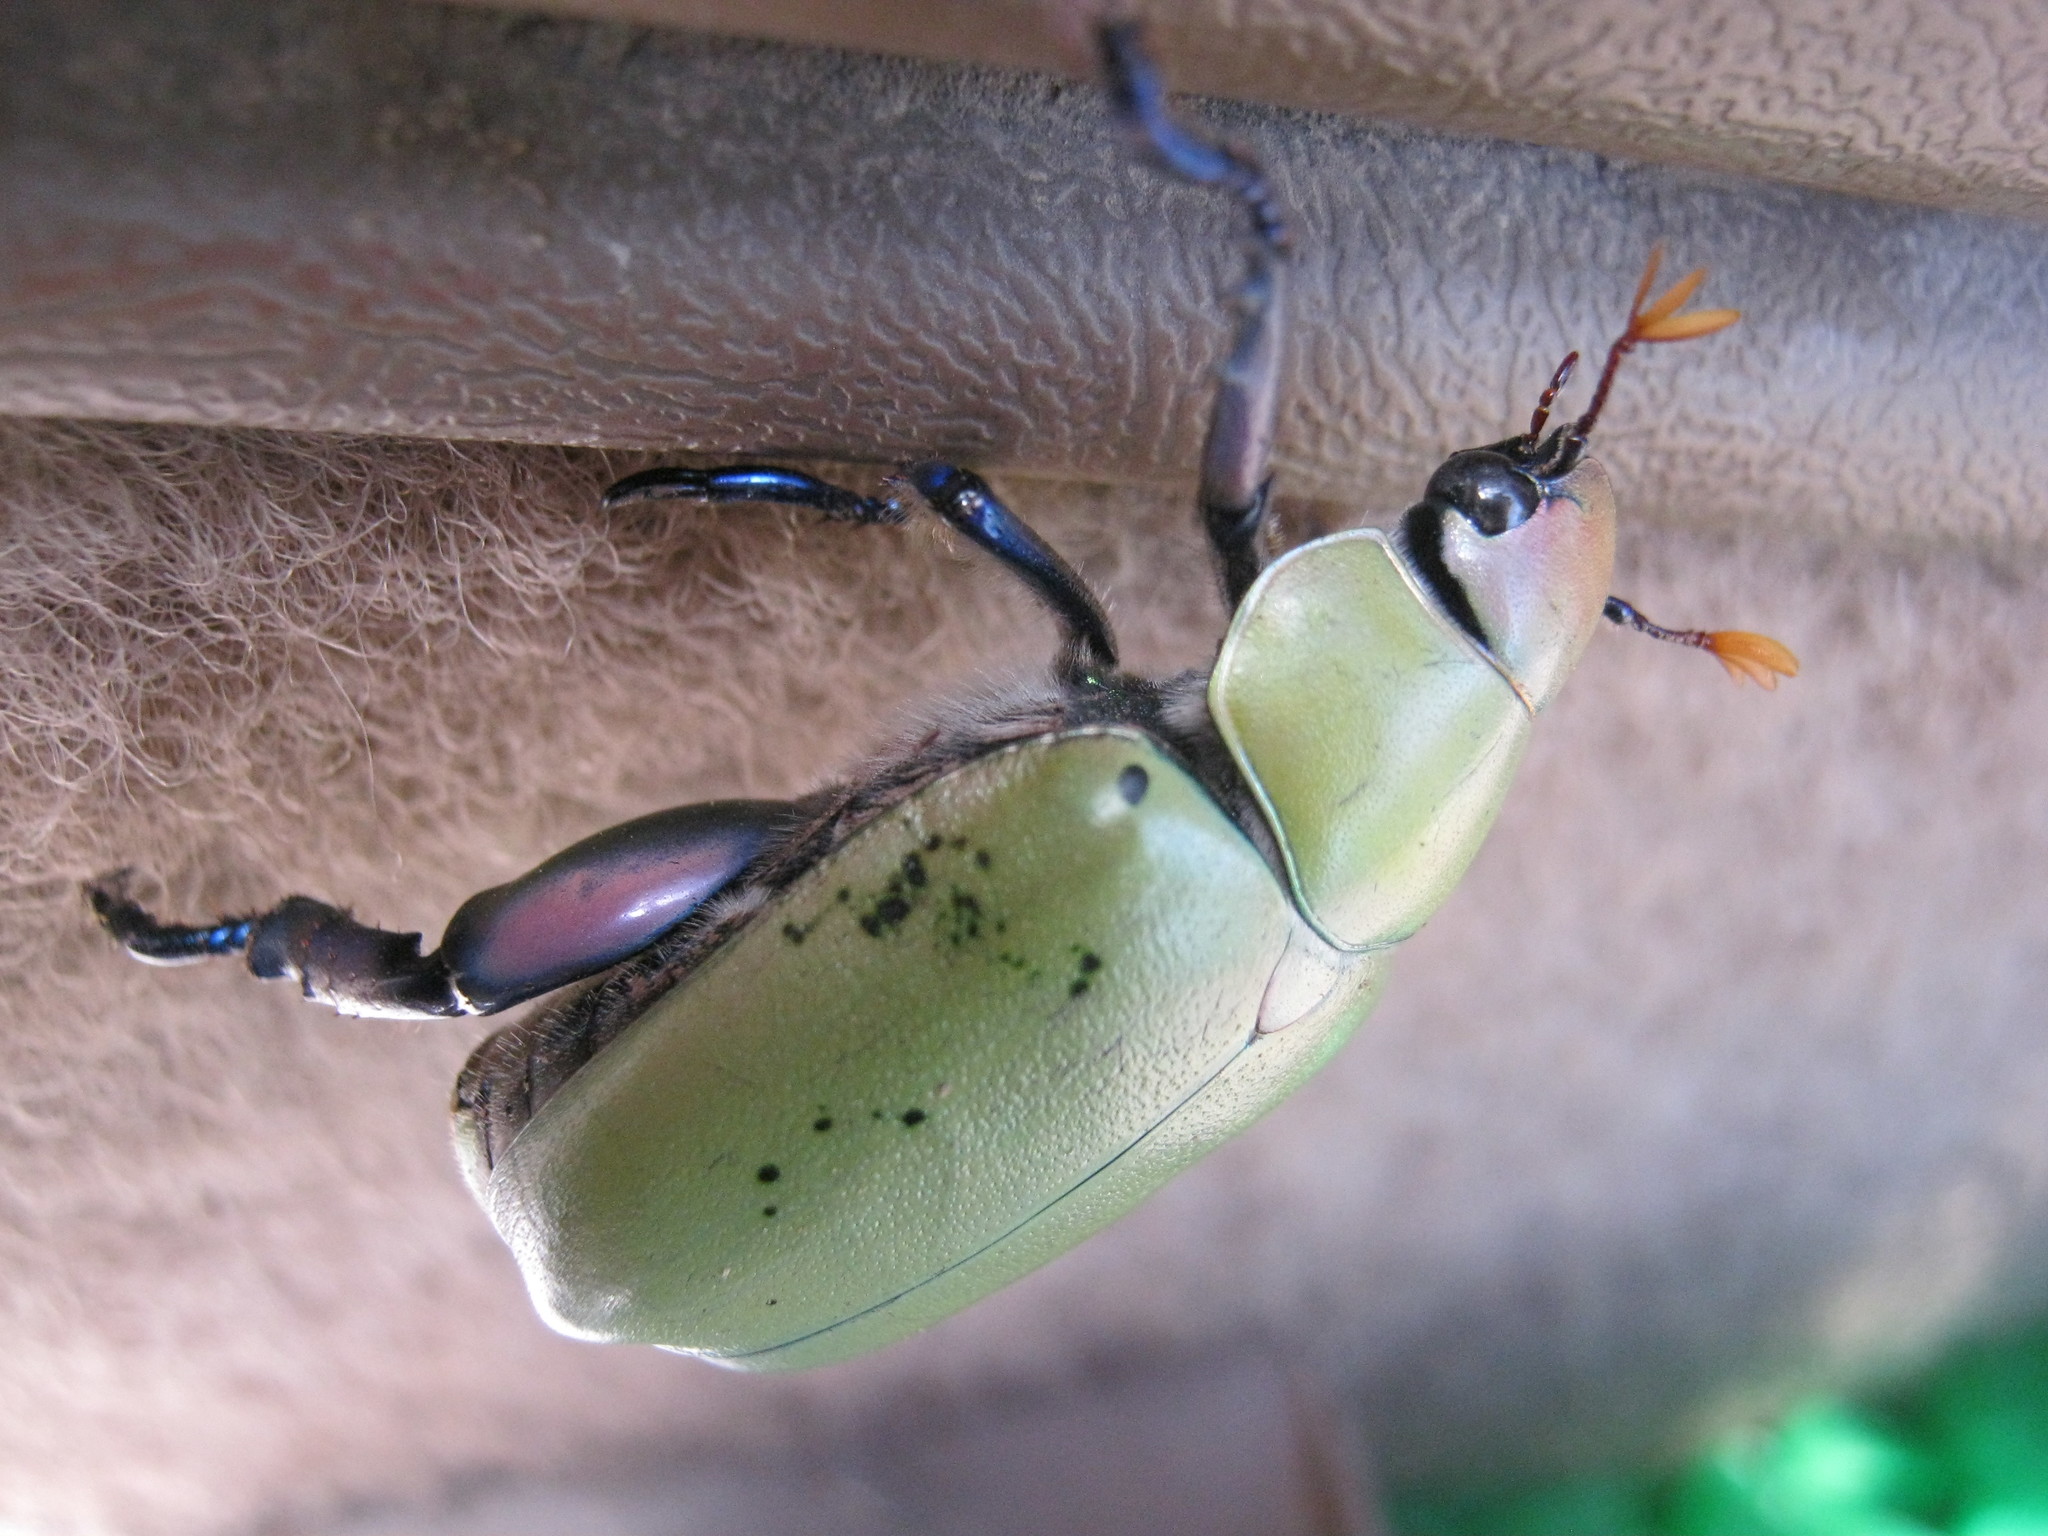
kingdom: Animalia
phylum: Arthropoda
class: Insecta
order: Coleoptera
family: Scarabaeidae
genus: Chrysina
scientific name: Chrysina erubescens
